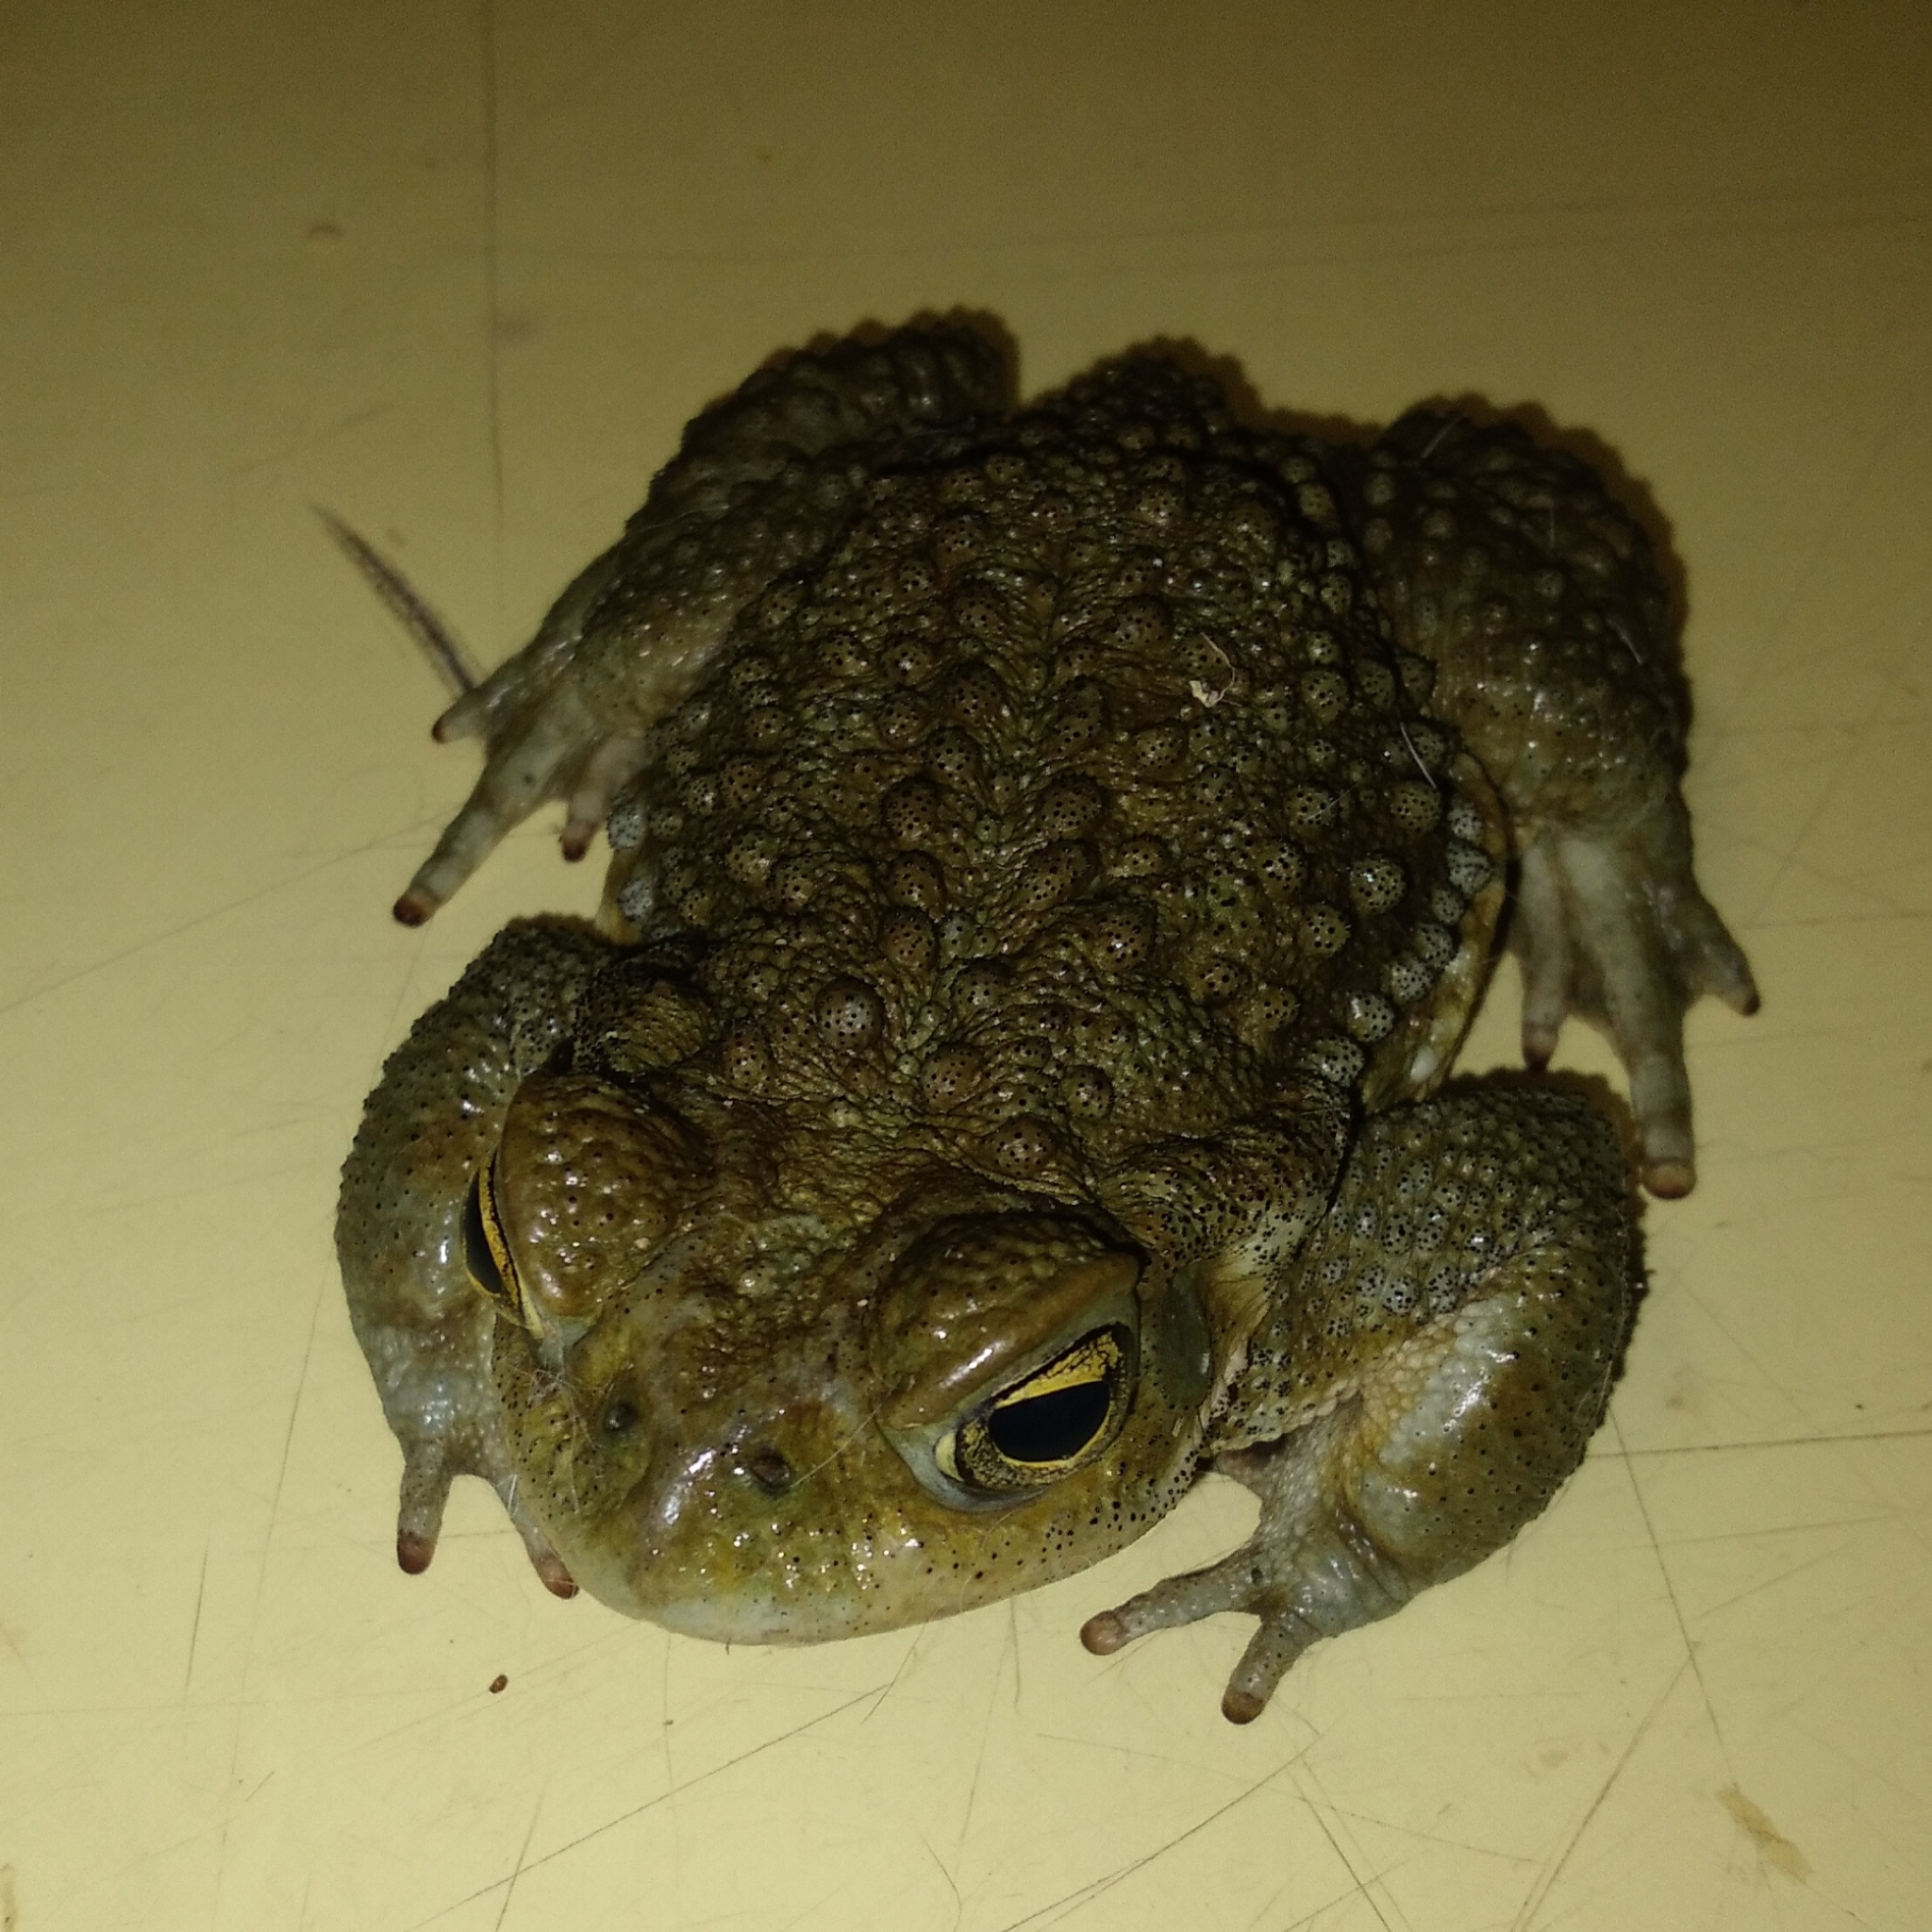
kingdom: Animalia
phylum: Chordata
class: Amphibia
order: Anura
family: Bufonidae
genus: Rhinella
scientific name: Rhinella arenarum
